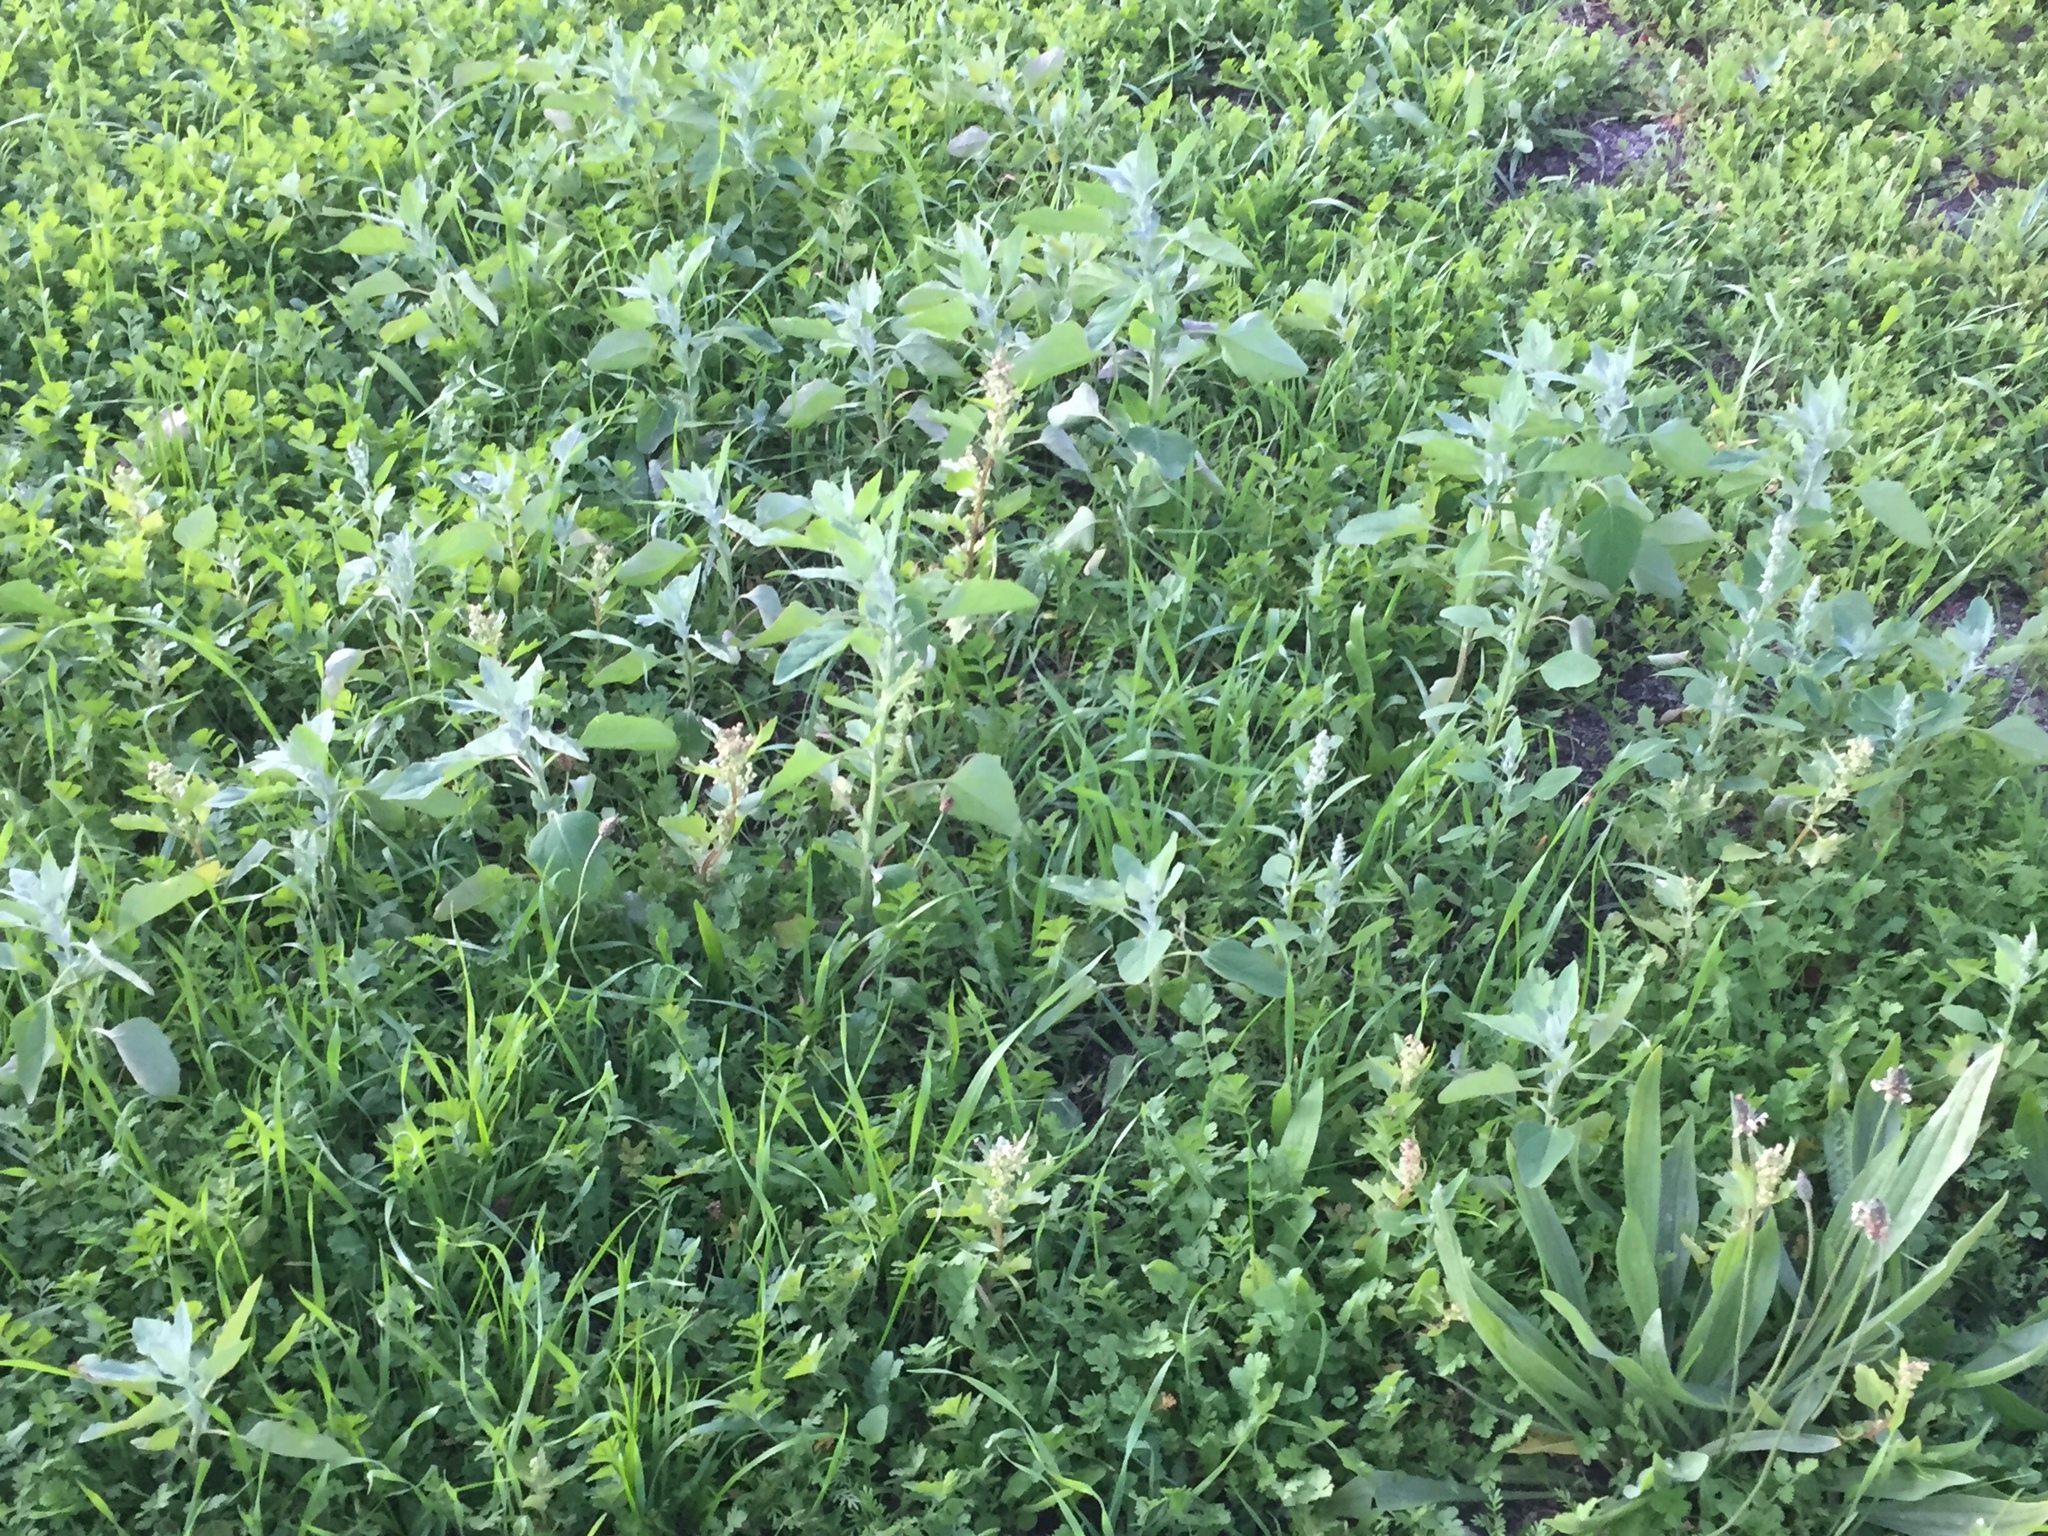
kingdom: Plantae
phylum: Tracheophyta
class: Magnoliopsida
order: Caryophyllales
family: Amaranthaceae
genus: Chenopodium
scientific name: Chenopodium album
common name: Fat-hen
